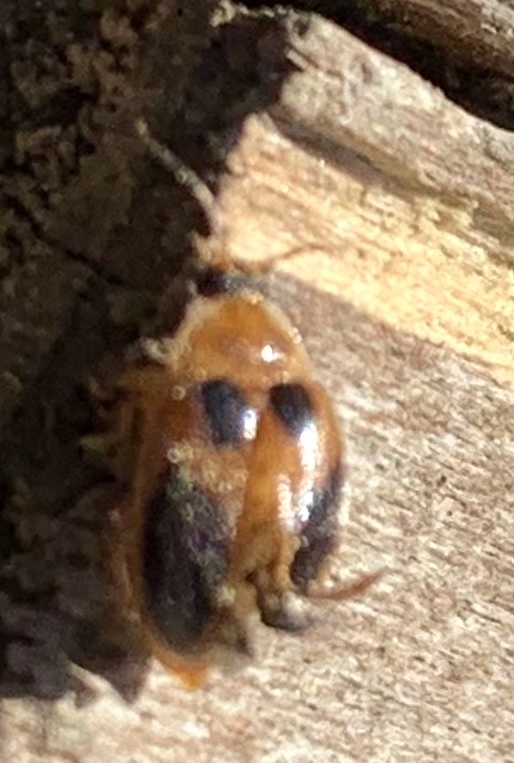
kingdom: Animalia
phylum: Arthropoda
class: Insecta
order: Coleoptera
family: Scirtidae
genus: Sacodes
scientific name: Sacodes pulchella
